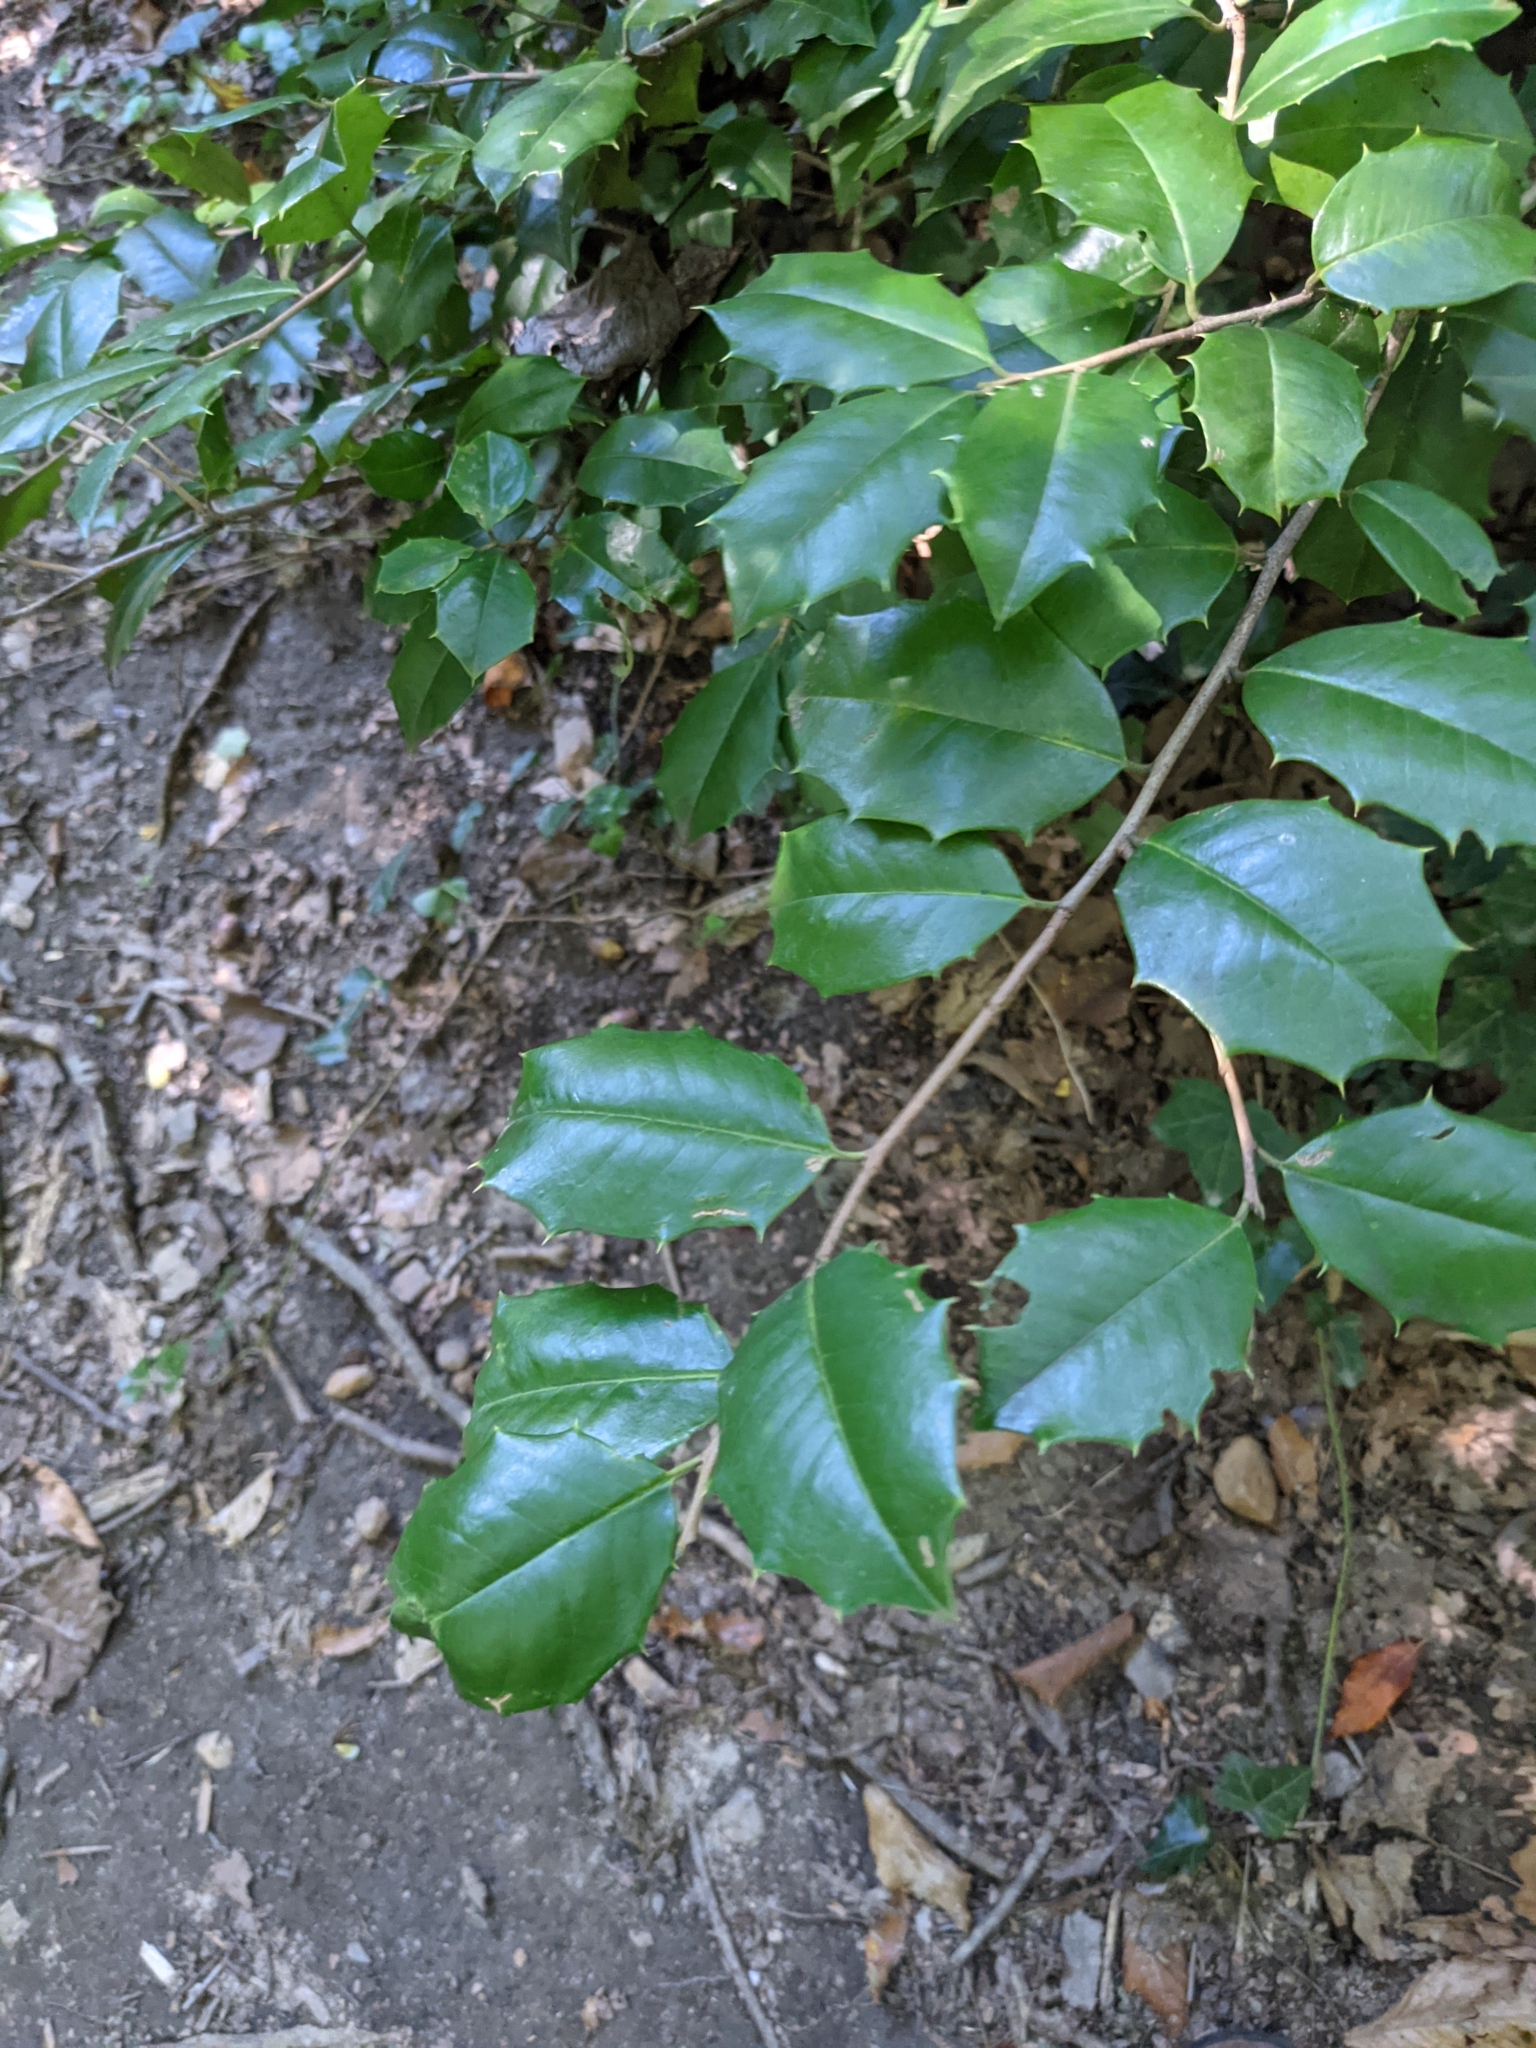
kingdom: Plantae
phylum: Tracheophyta
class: Magnoliopsida
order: Aquifoliales
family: Aquifoliaceae
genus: Ilex
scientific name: Ilex opaca
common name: American holly
